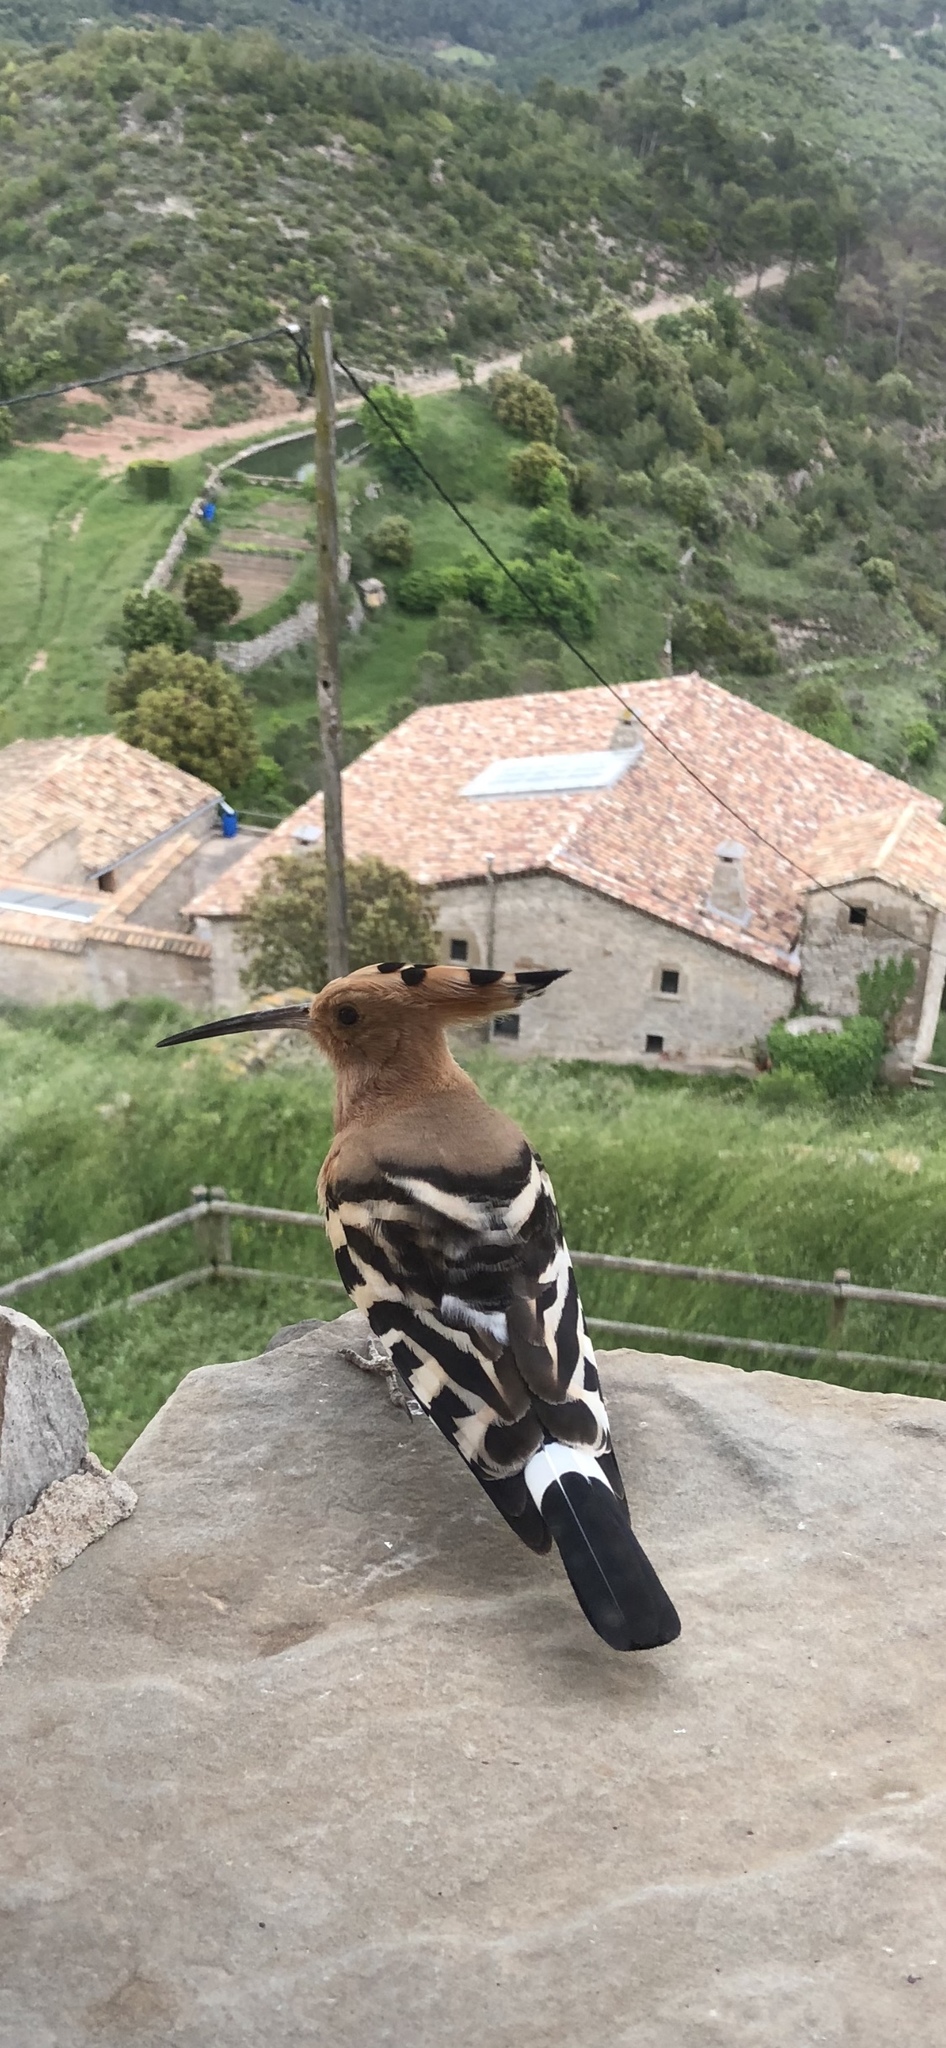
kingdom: Animalia
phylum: Chordata
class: Aves
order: Bucerotiformes
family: Upupidae
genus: Upupa
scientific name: Upupa epops
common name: Eurasian hoopoe
